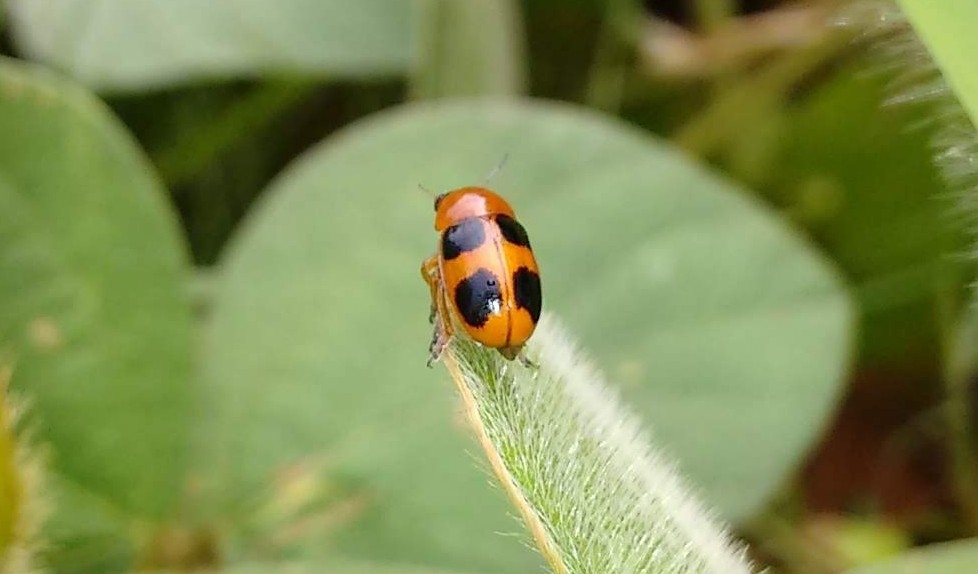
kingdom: Animalia
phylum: Arthropoda
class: Insecta
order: Coleoptera
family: Chrysomelidae
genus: Coptocephala
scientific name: Coptocephala
